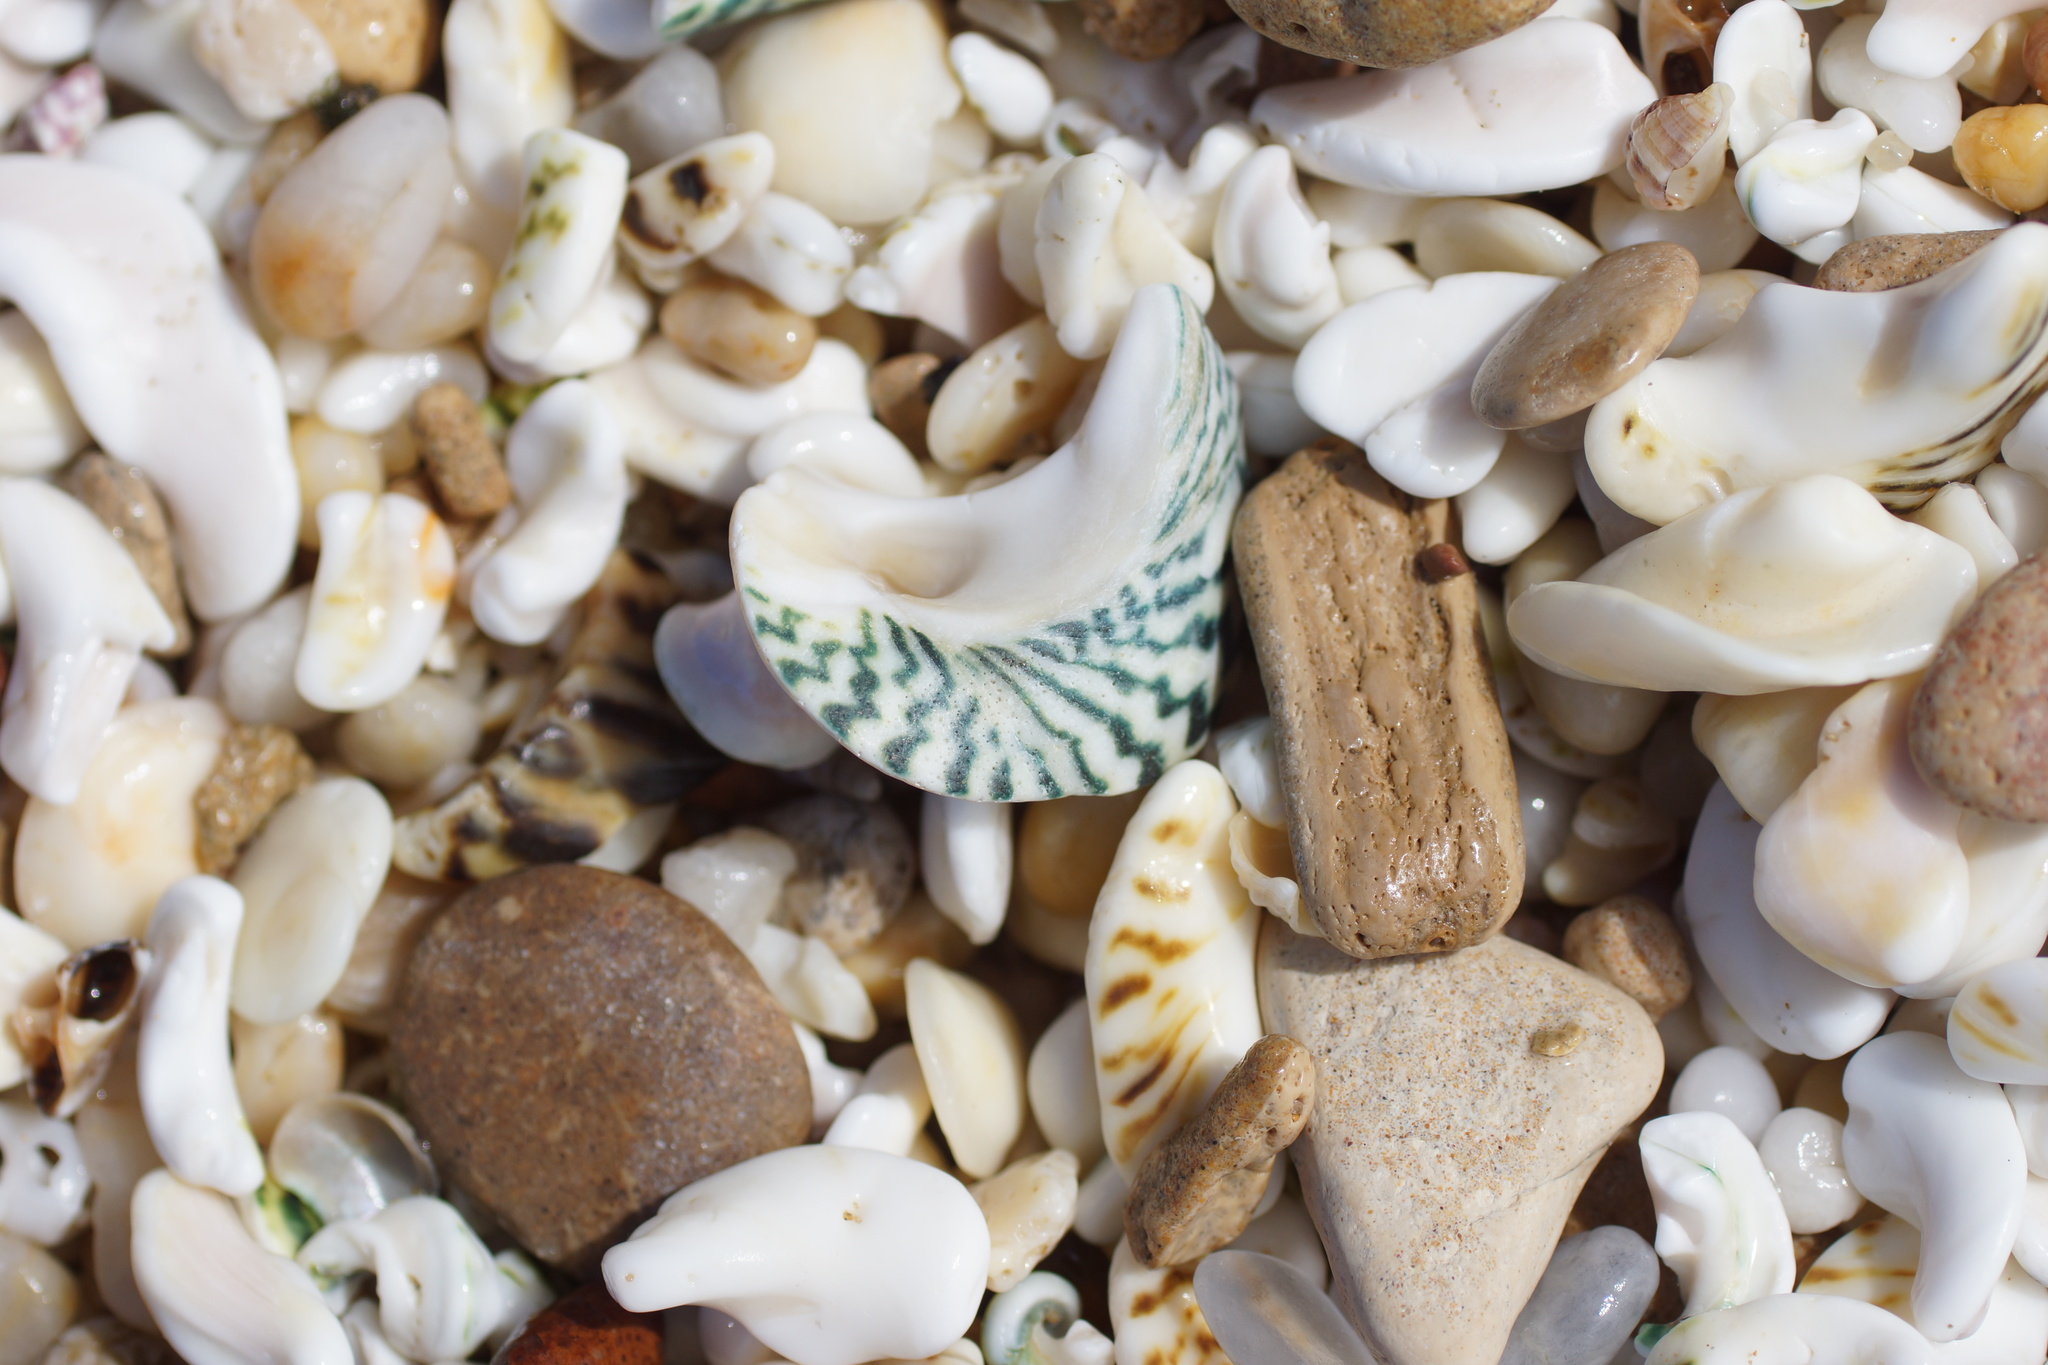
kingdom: Animalia
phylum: Mollusca
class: Gastropoda
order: Trochida
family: Turbinidae
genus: Lunella
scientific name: Lunella undulata
